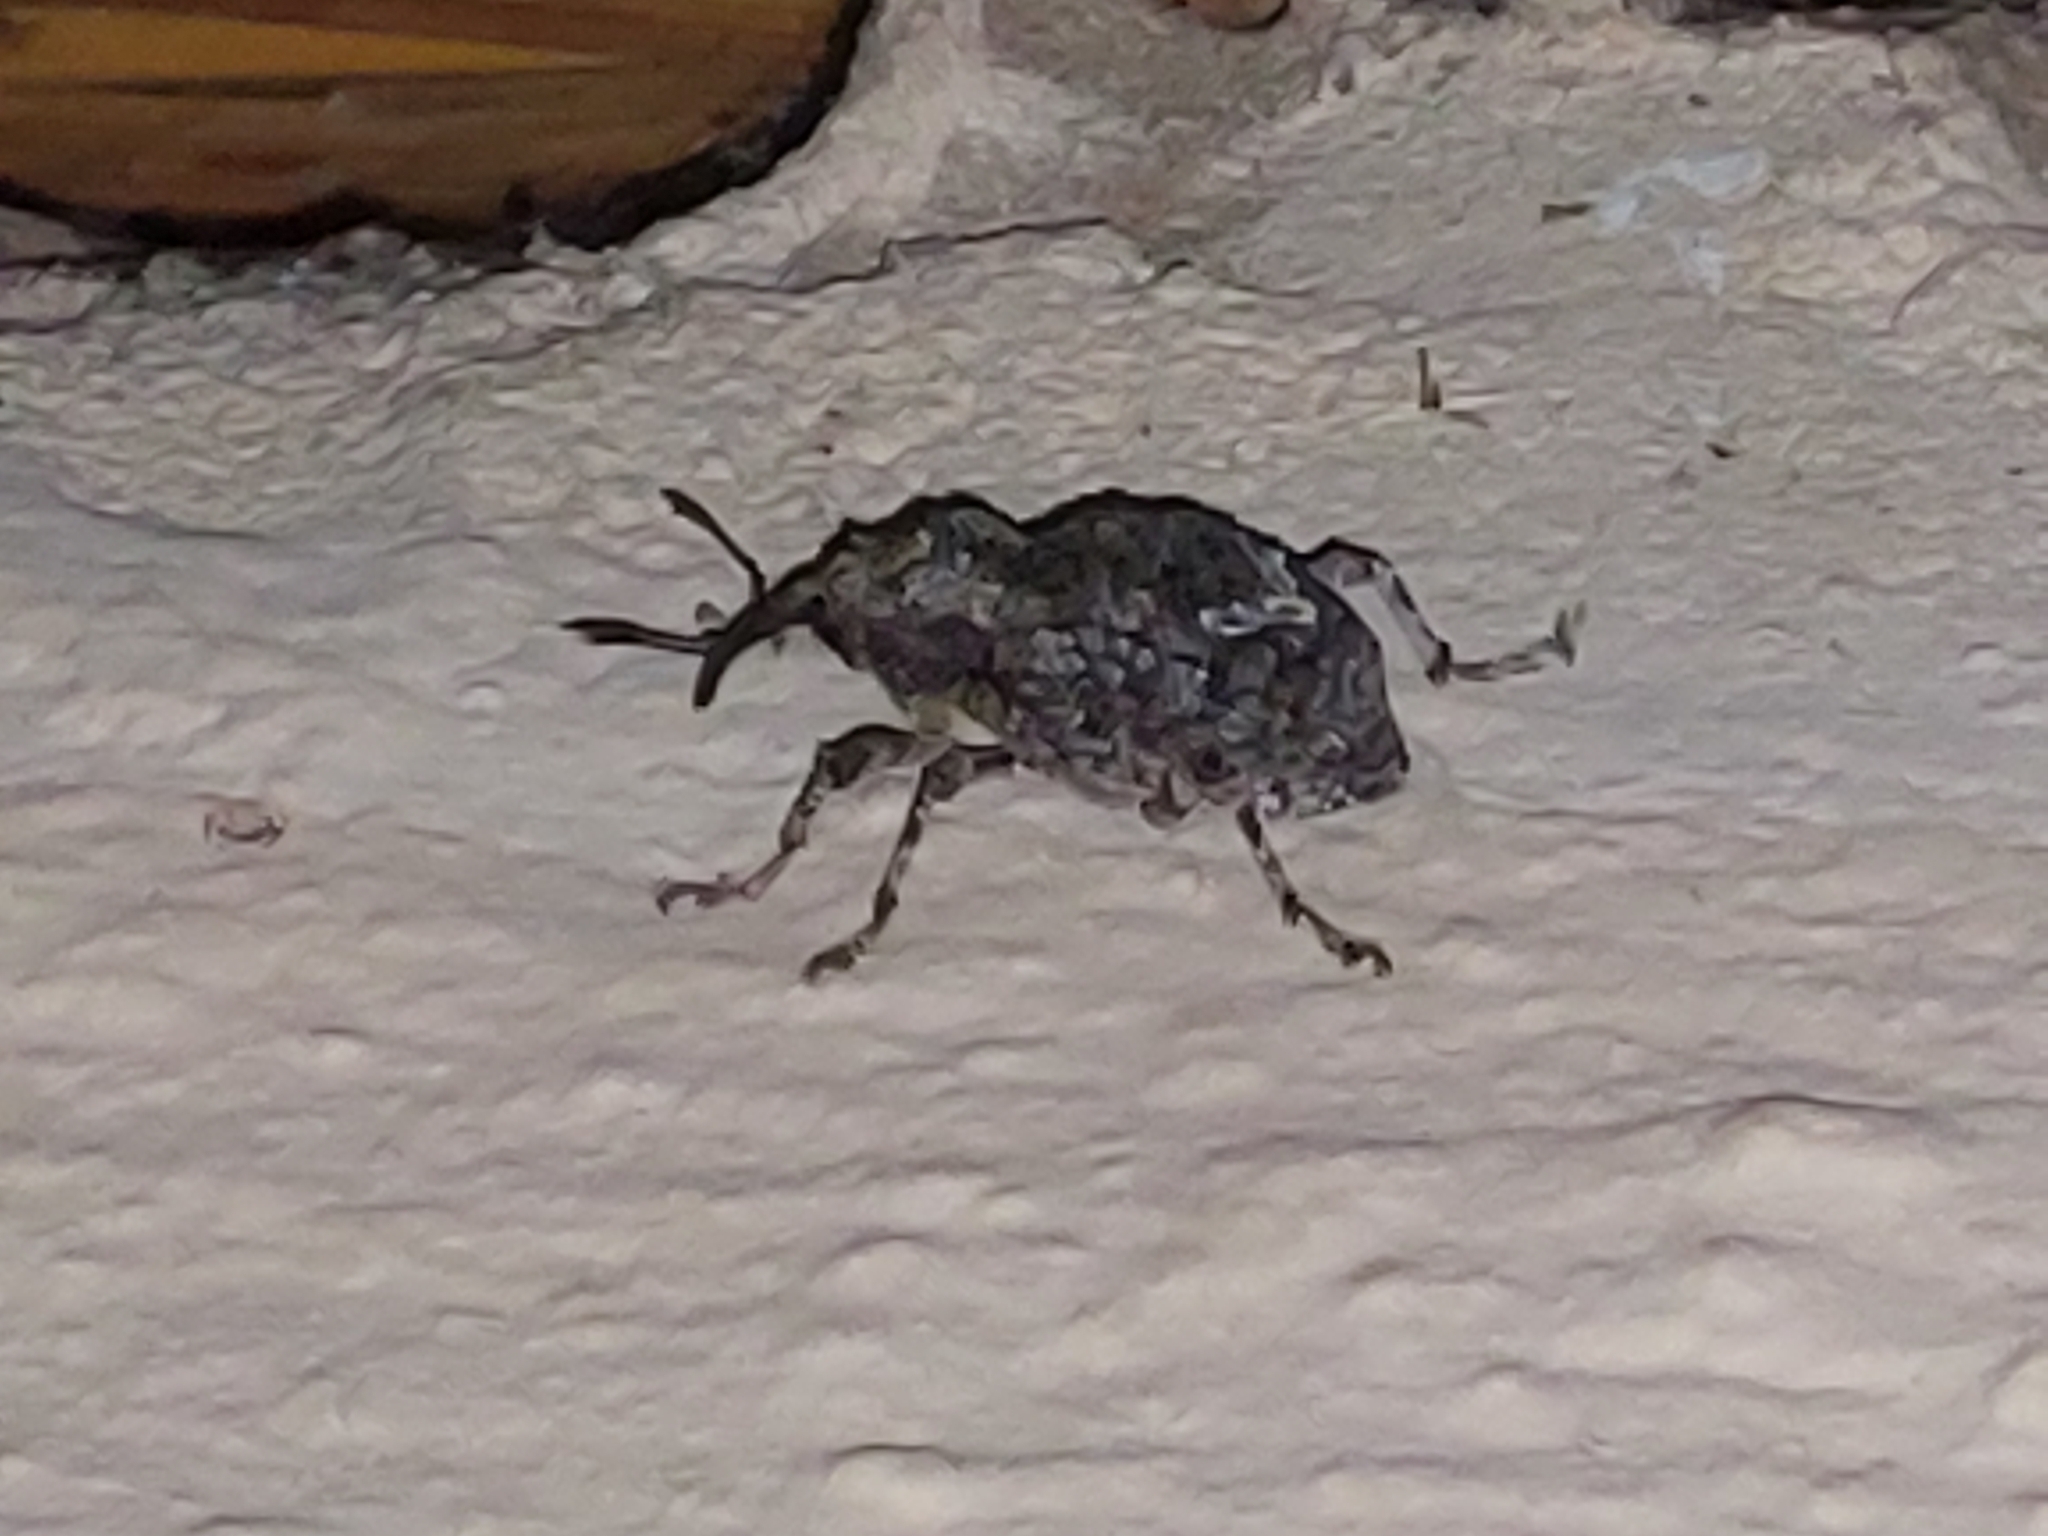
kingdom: Animalia
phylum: Arthropoda
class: Insecta
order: Coleoptera
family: Curculionidae
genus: Mecocorynus
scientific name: Mecocorynus
